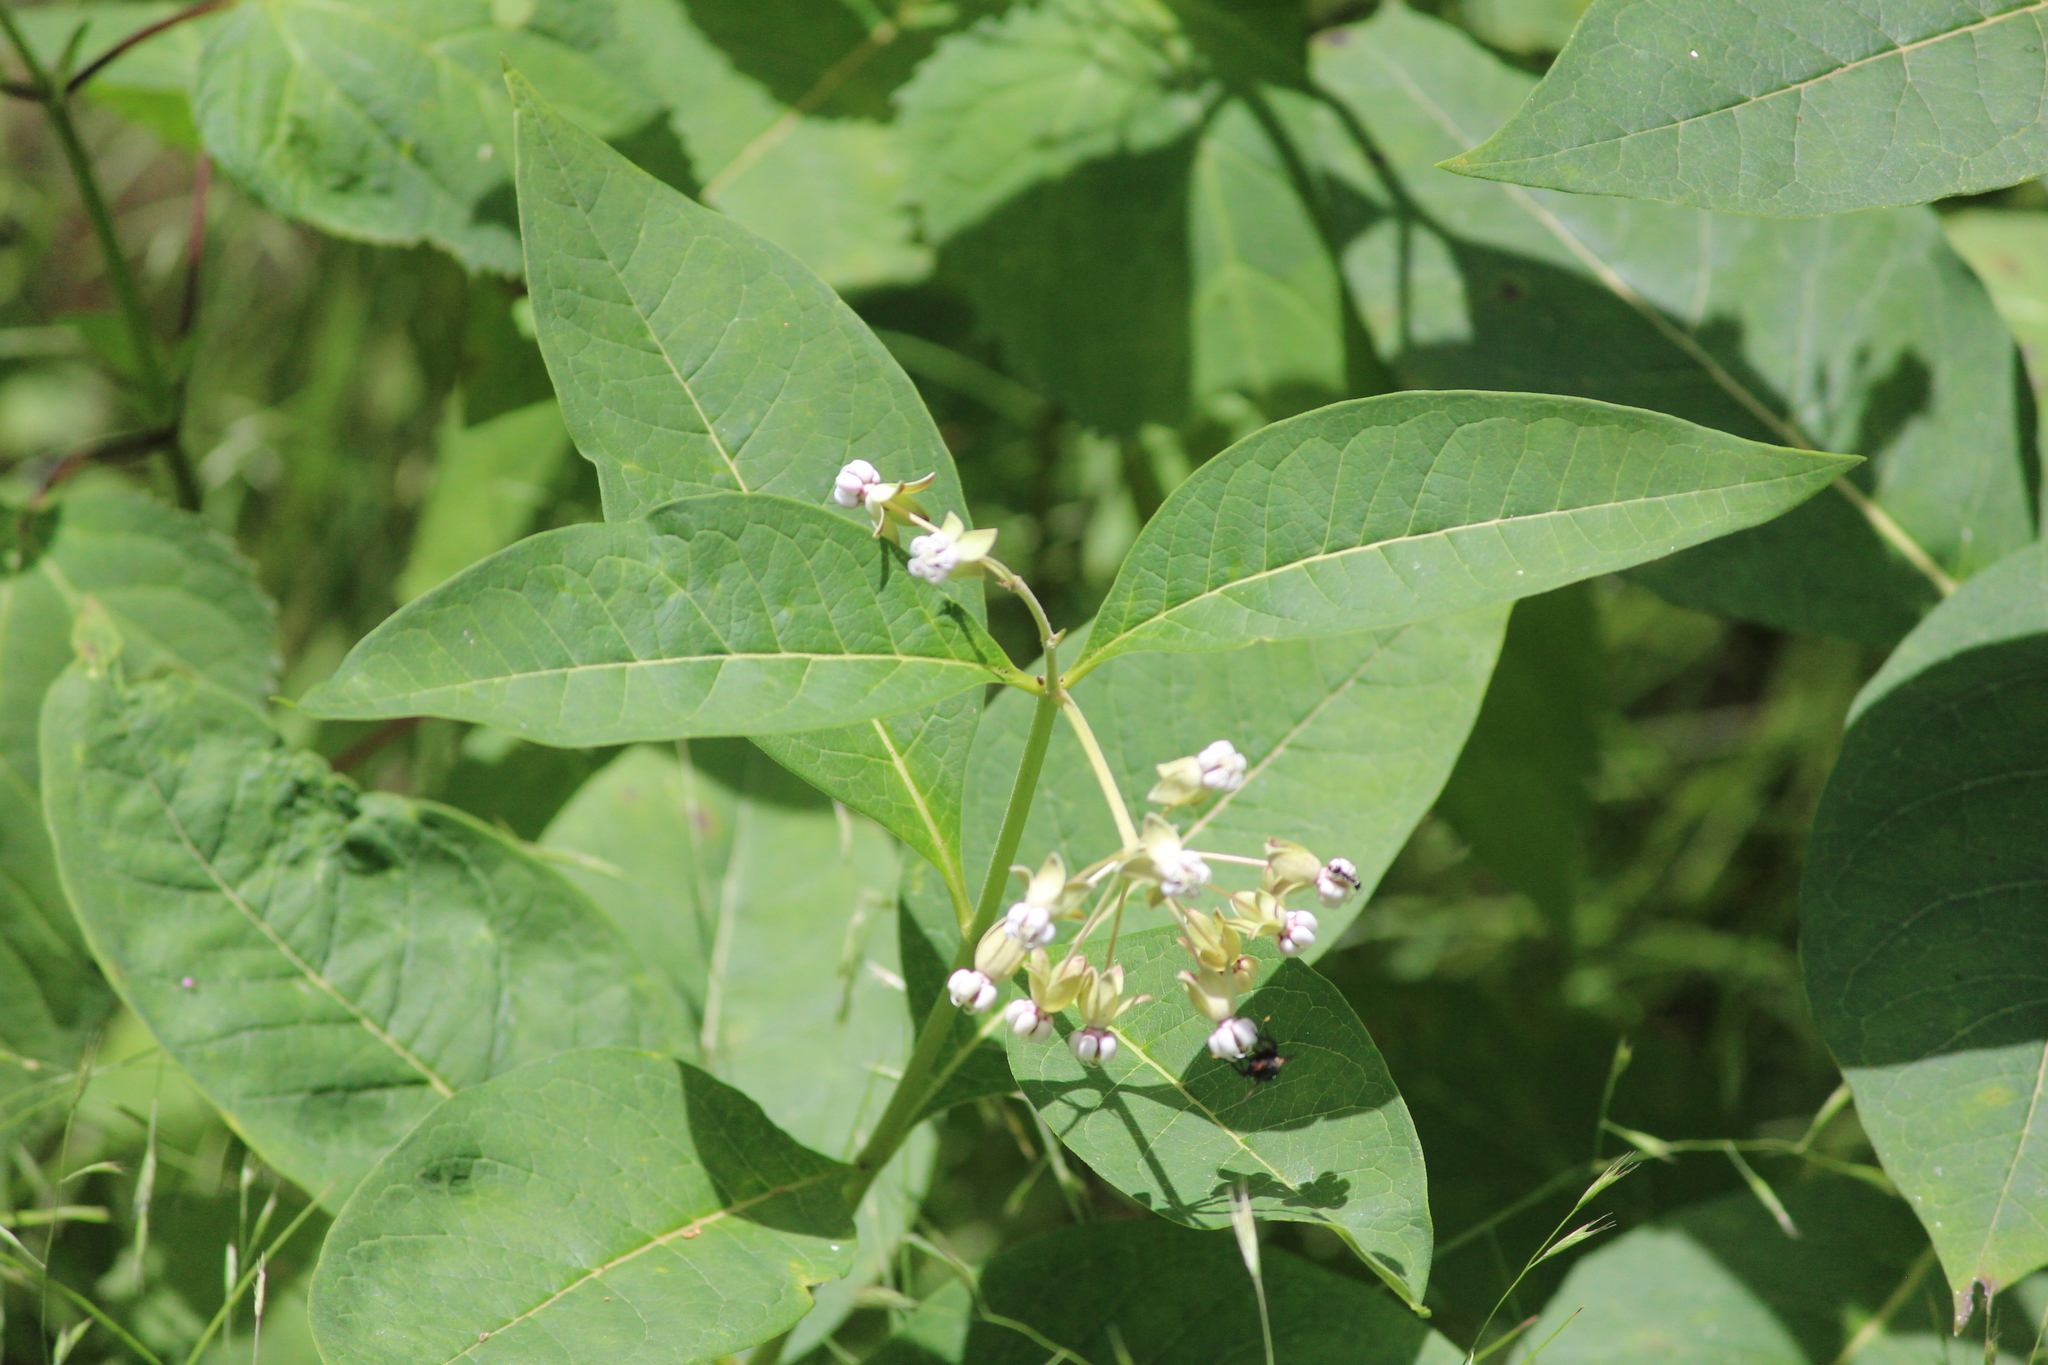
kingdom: Plantae
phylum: Tracheophyta
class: Magnoliopsida
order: Gentianales
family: Apocynaceae
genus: Asclepias
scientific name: Asclepias exaltata
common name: Poke milkweed
